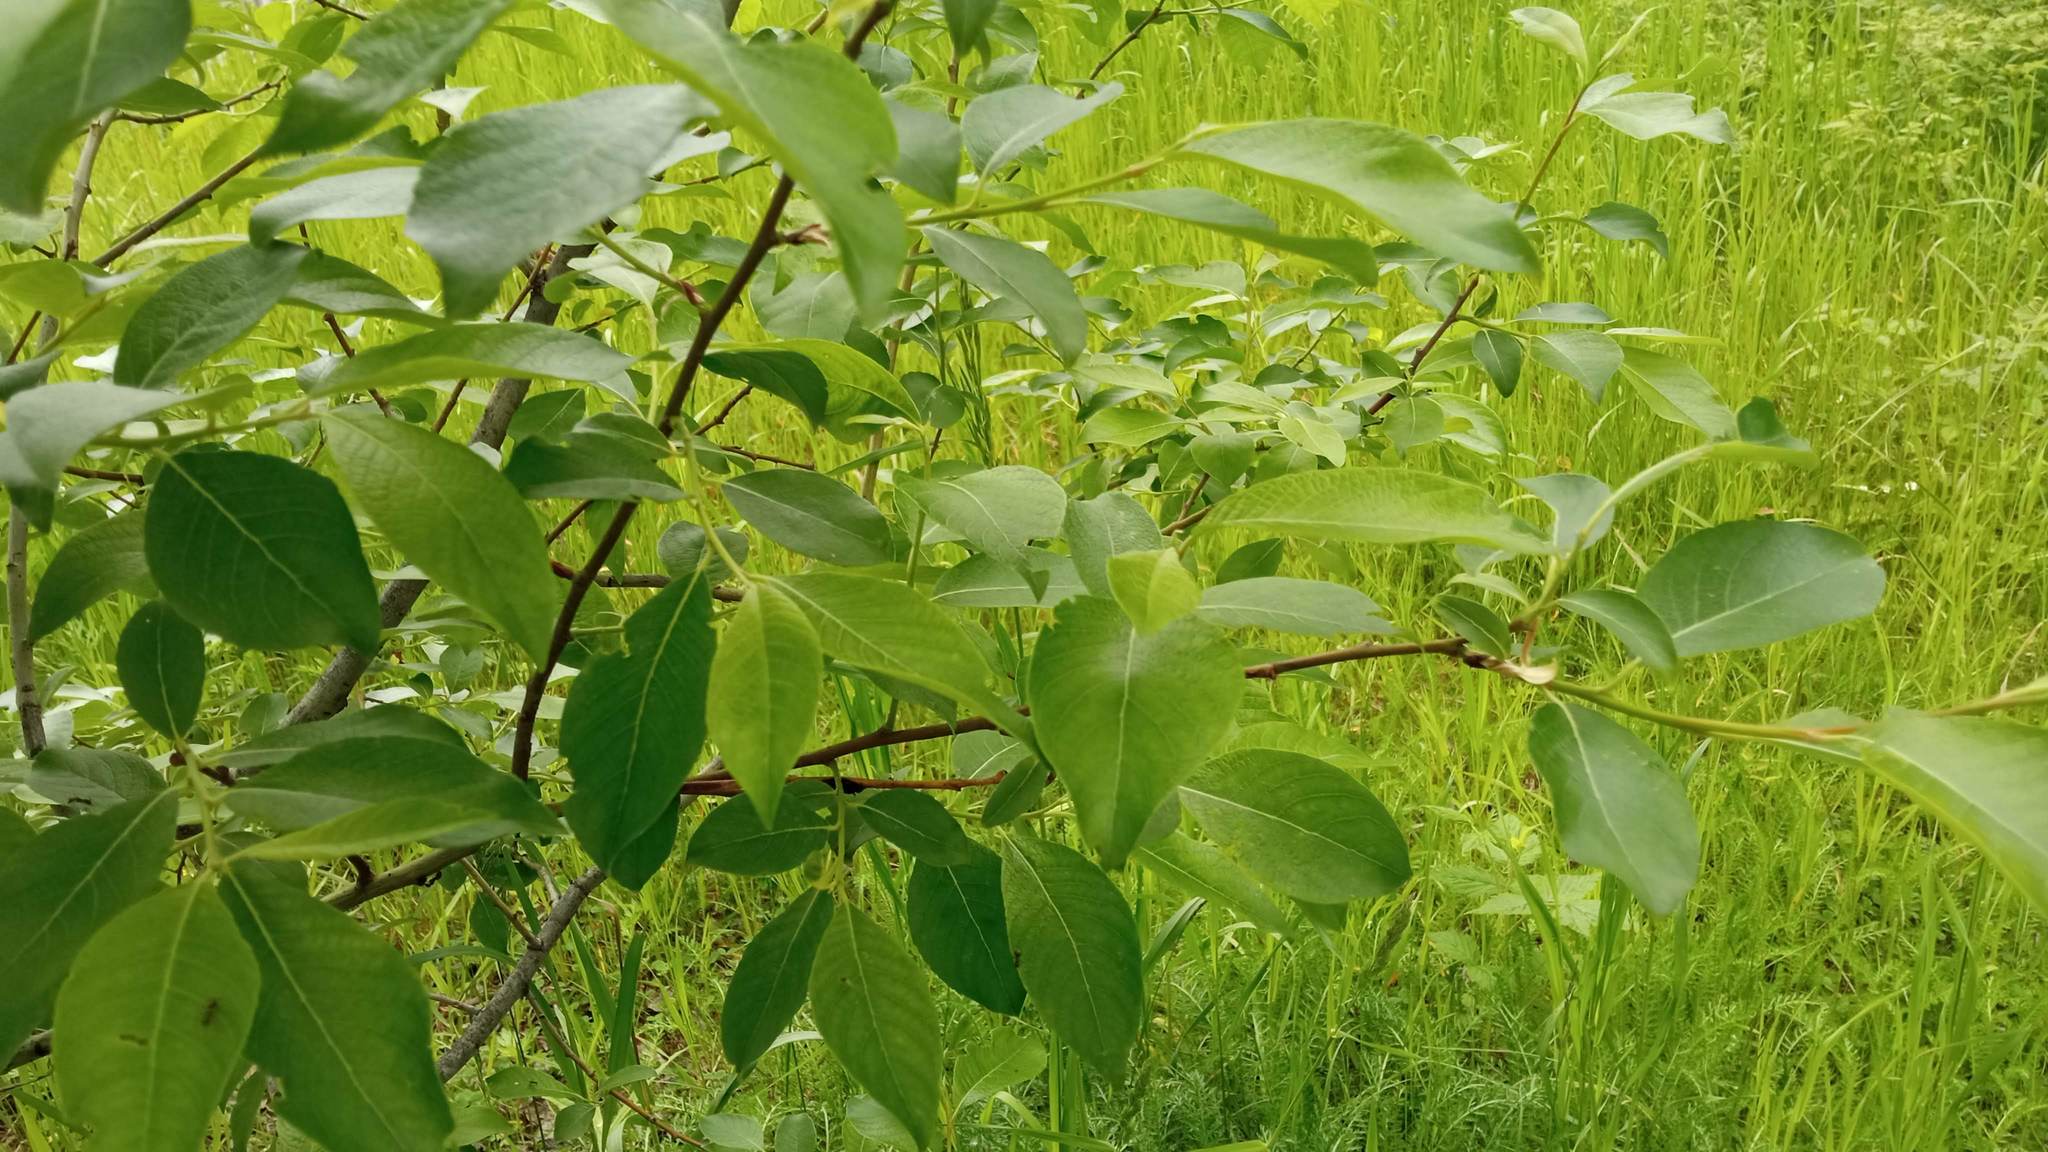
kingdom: Plantae
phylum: Tracheophyta
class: Magnoliopsida
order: Malpighiales
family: Salicaceae
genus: Salix
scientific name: Salix caprea
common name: Goat willow
